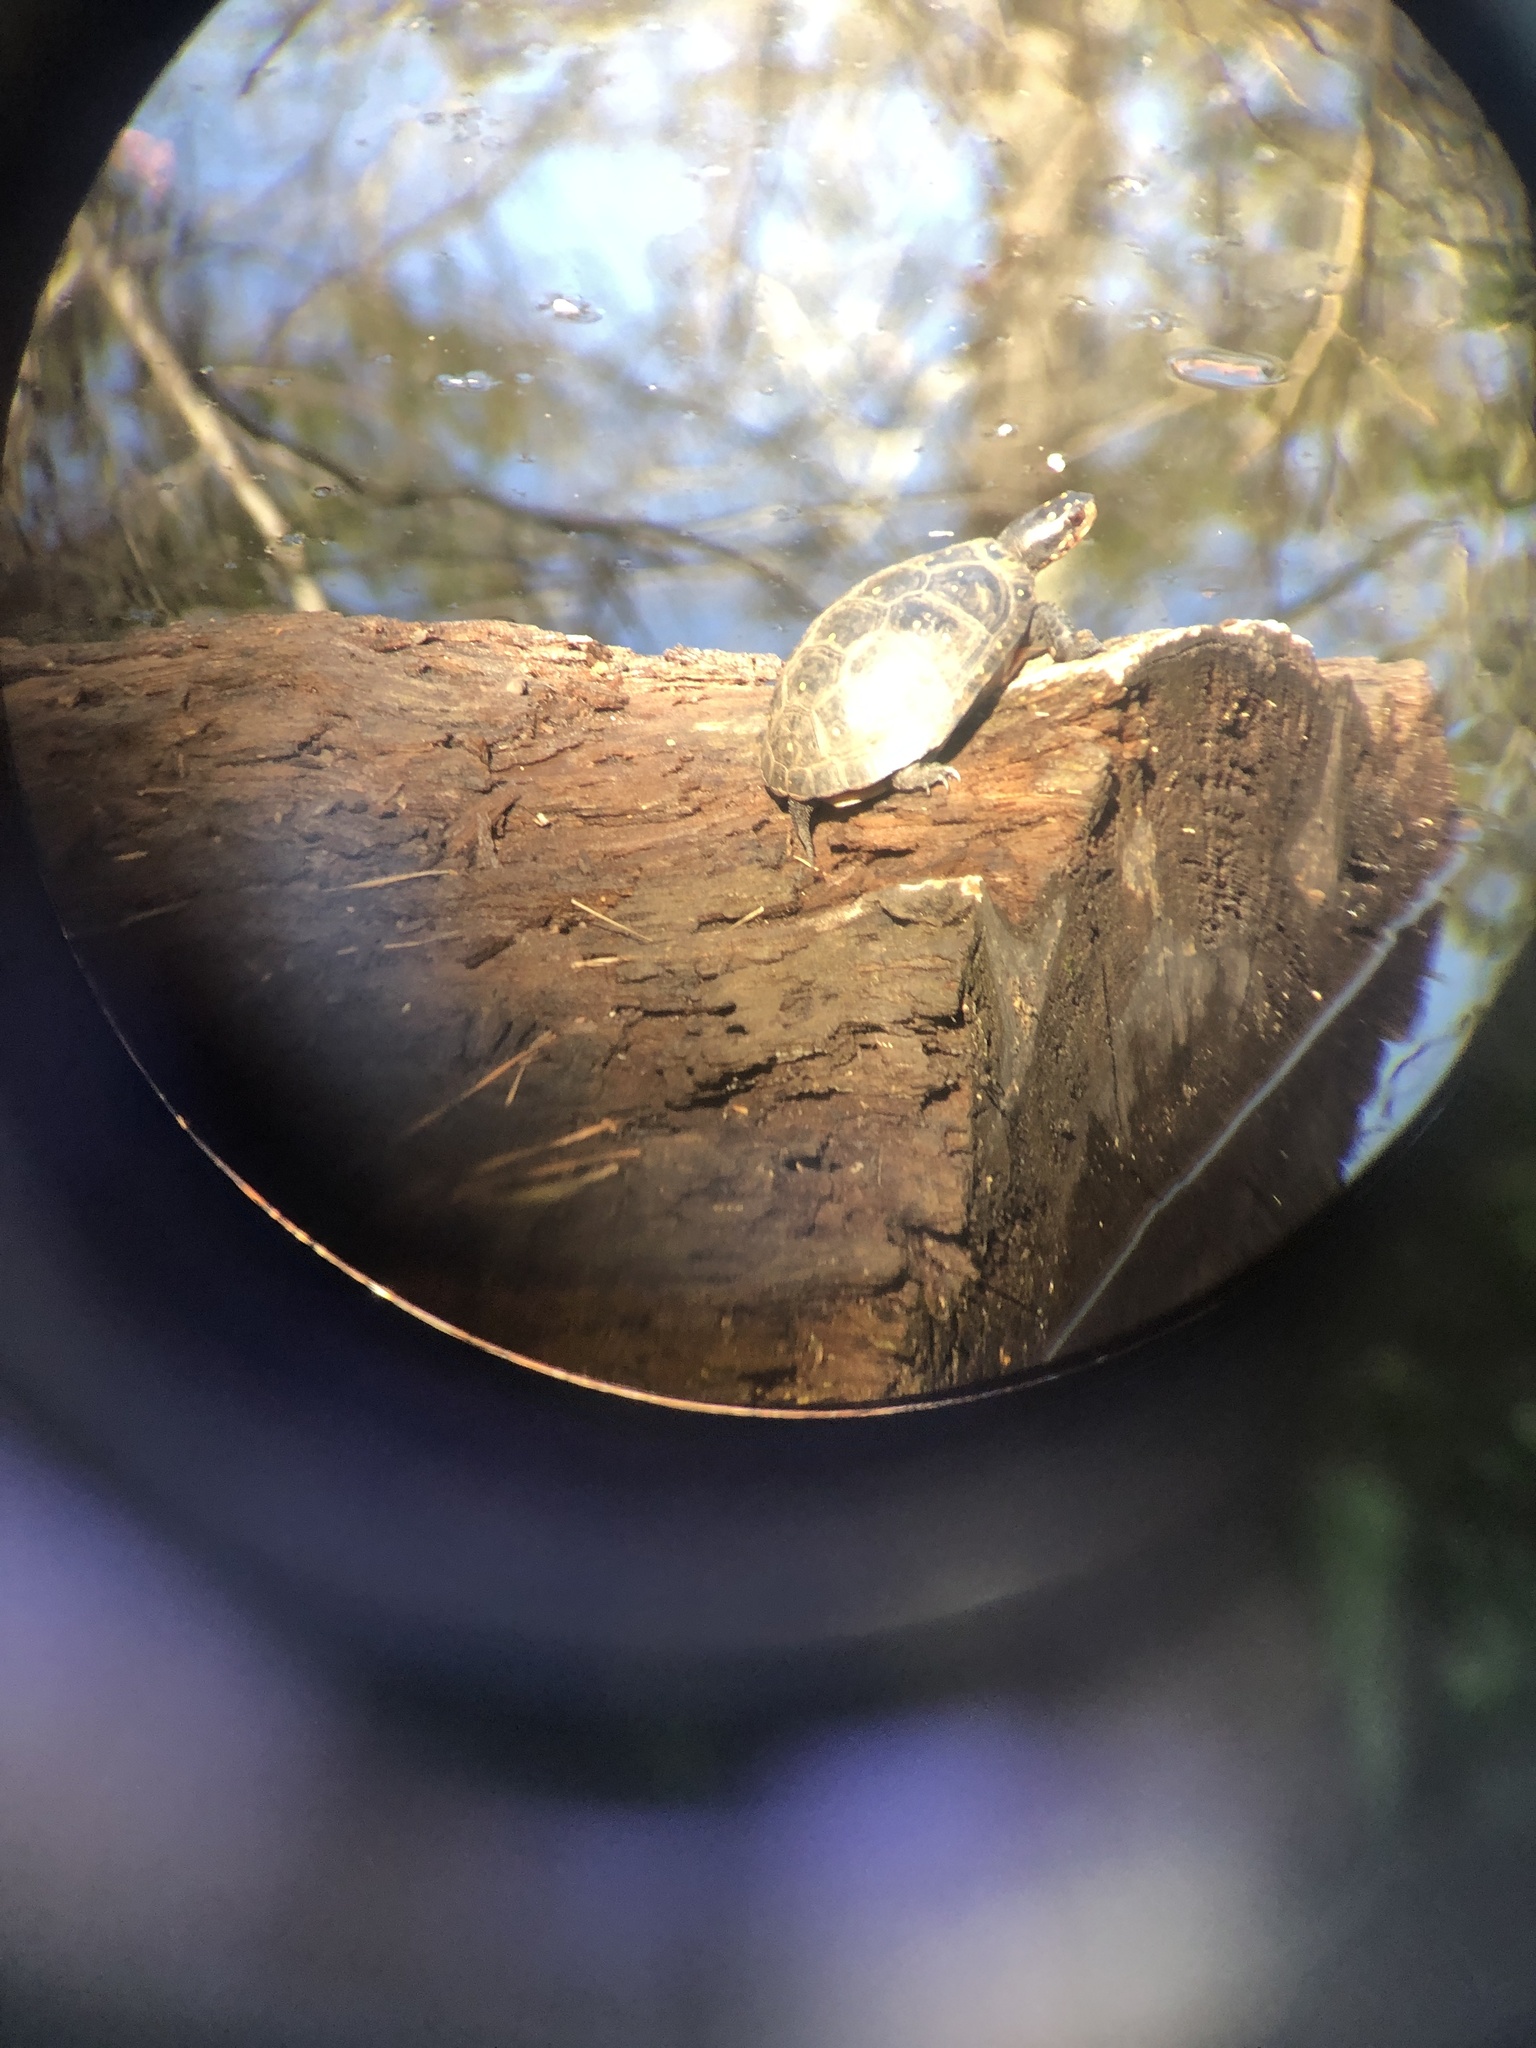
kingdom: Animalia
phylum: Chordata
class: Testudines
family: Emydidae
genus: Clemmys
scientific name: Clemmys guttata
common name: Spotted turtle
